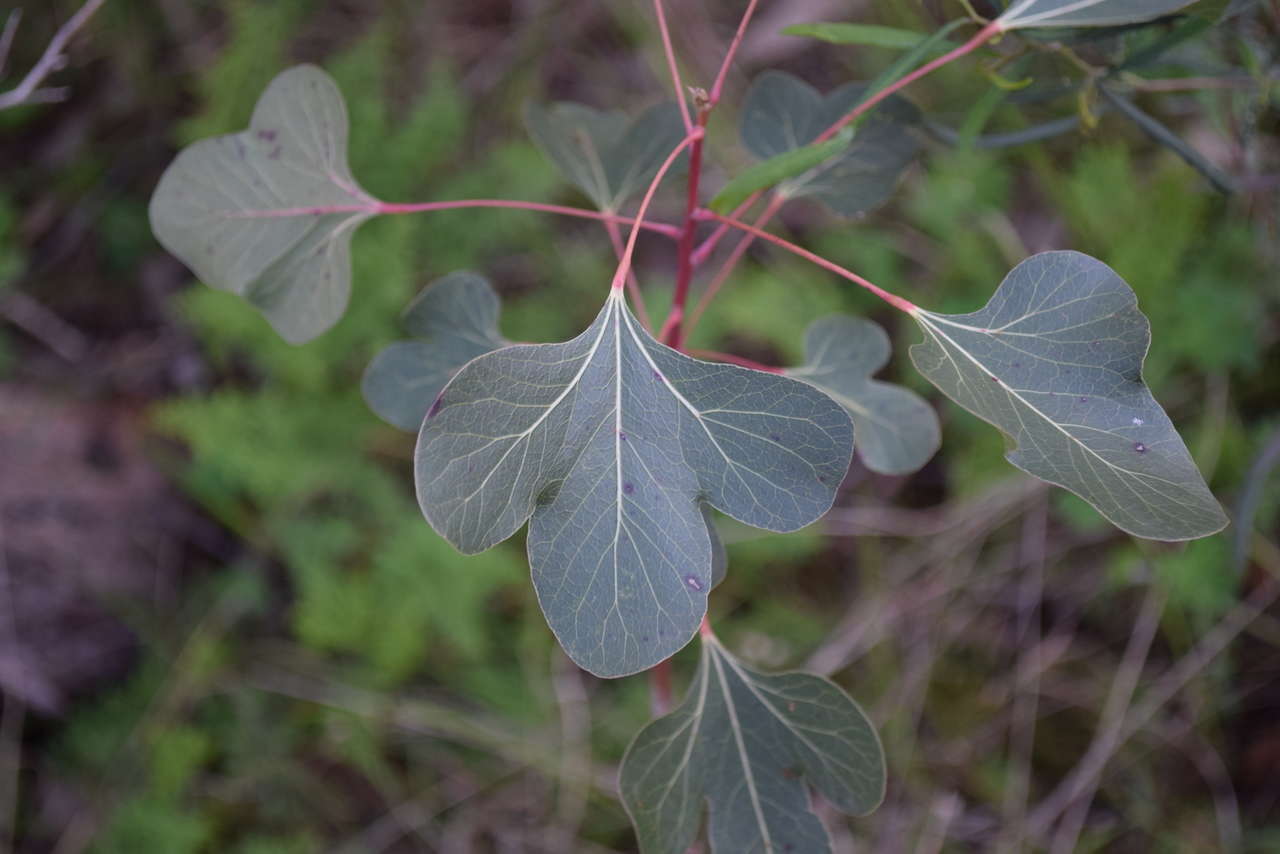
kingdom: Plantae
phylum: Tracheophyta
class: Magnoliopsida
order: Malvales
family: Malvaceae
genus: Brachychiton
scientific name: Brachychiton populneus
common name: Kurrajong
